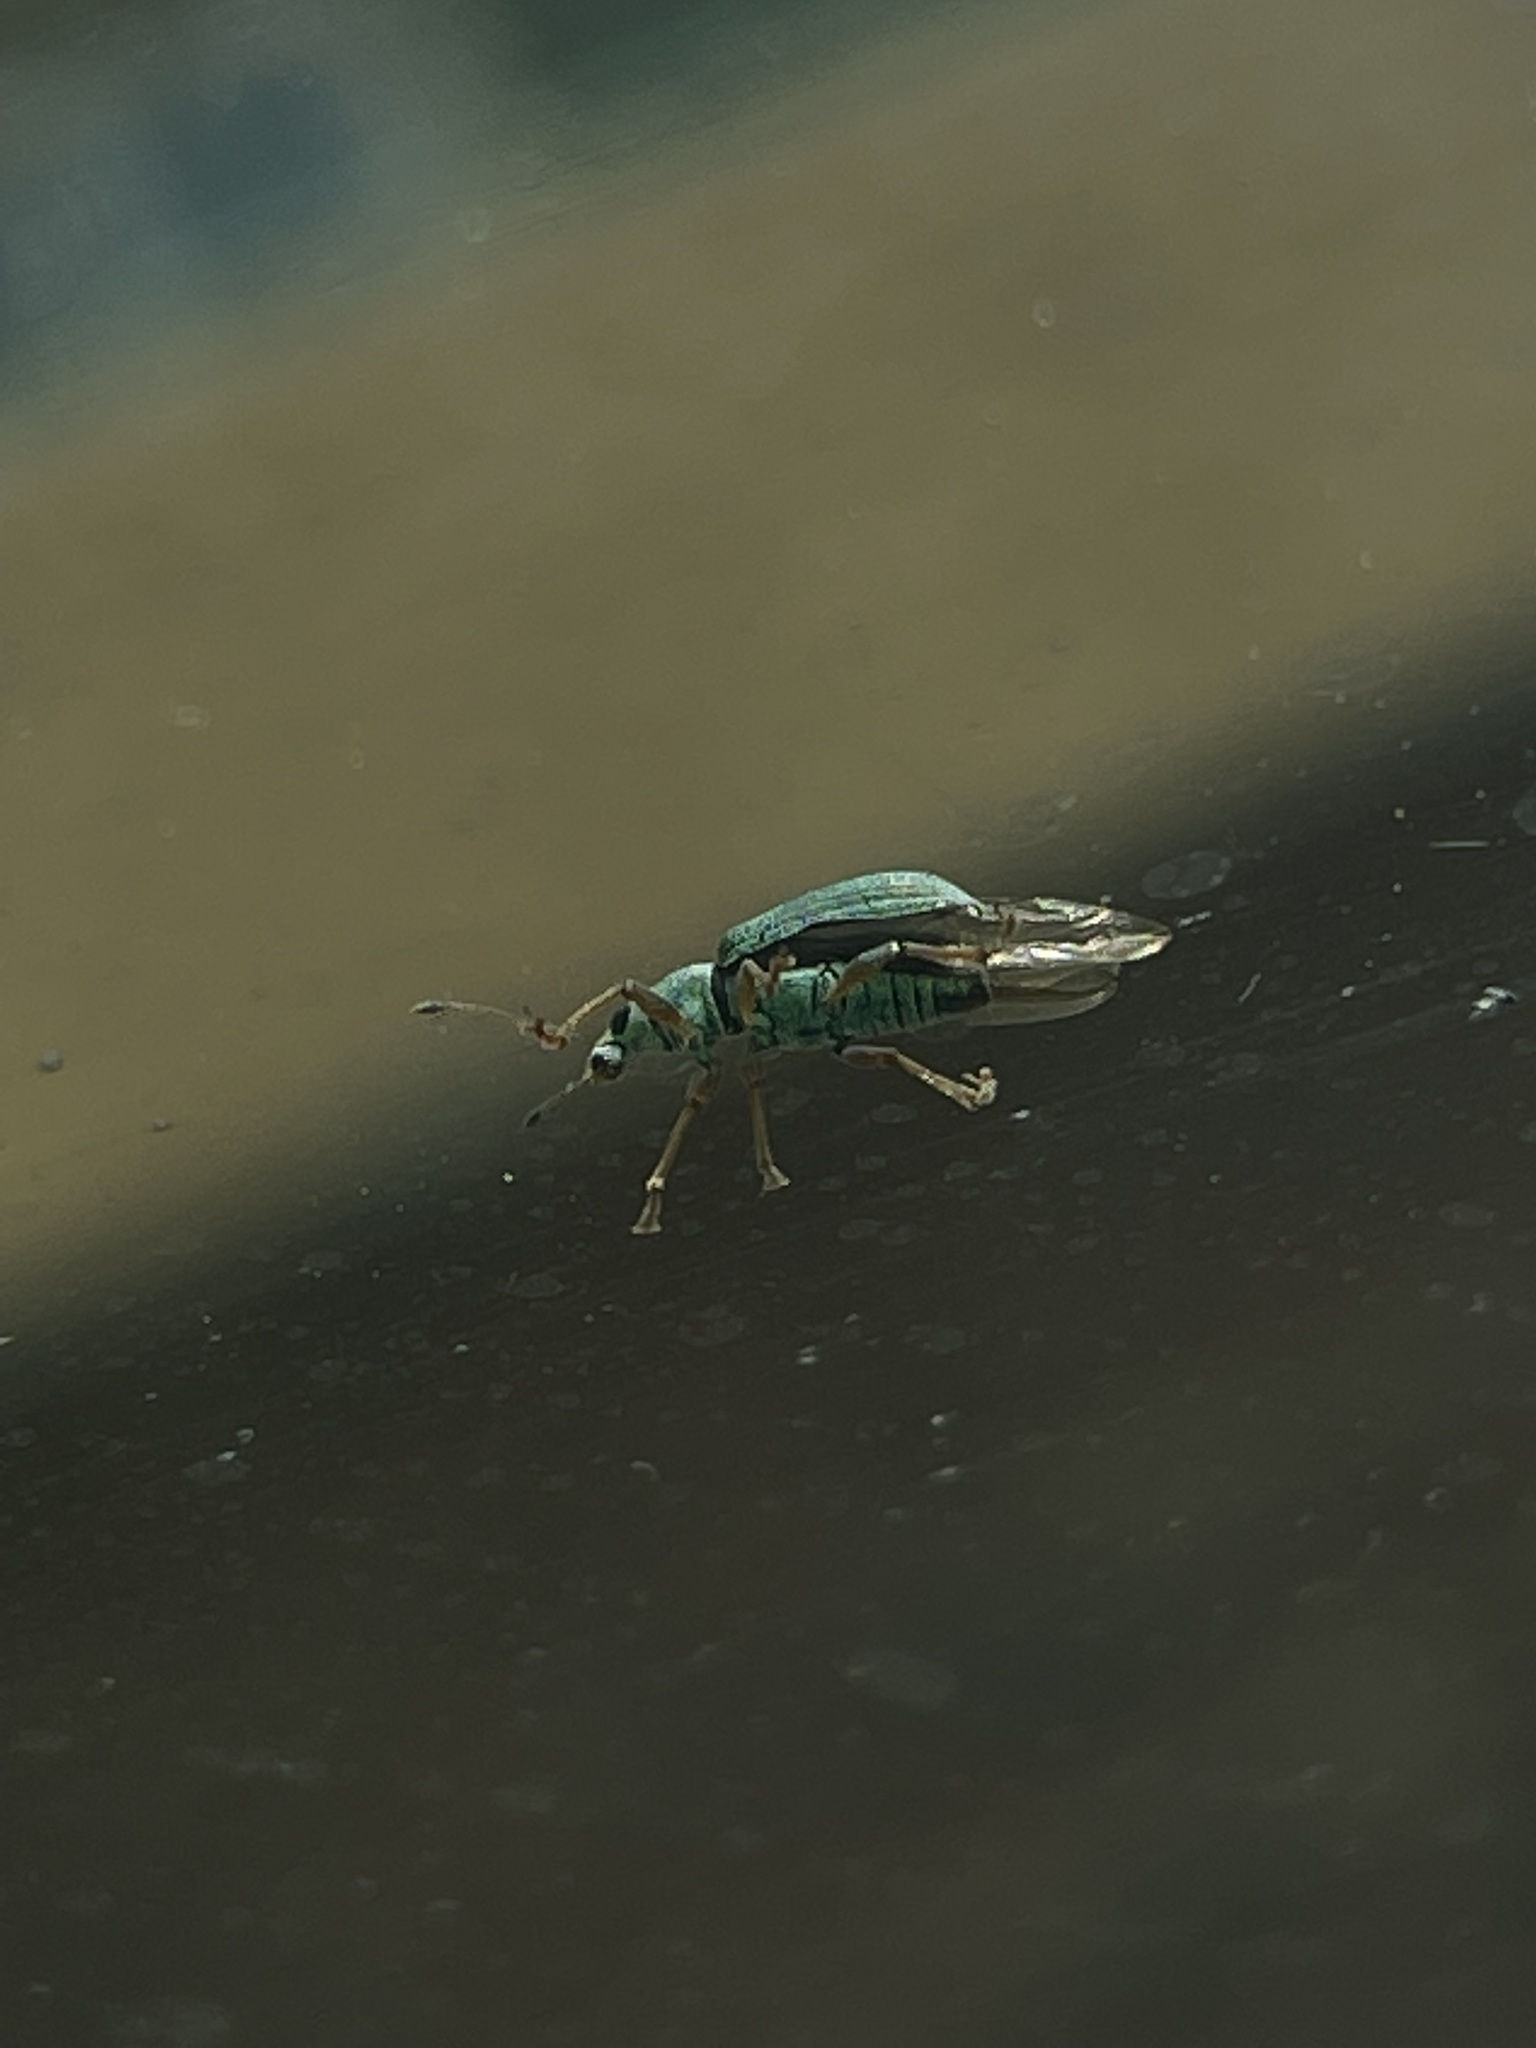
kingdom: Animalia
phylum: Arthropoda
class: Insecta
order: Coleoptera
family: Curculionidae
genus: Polydrusus
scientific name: Polydrusus formosus
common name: Weevil
